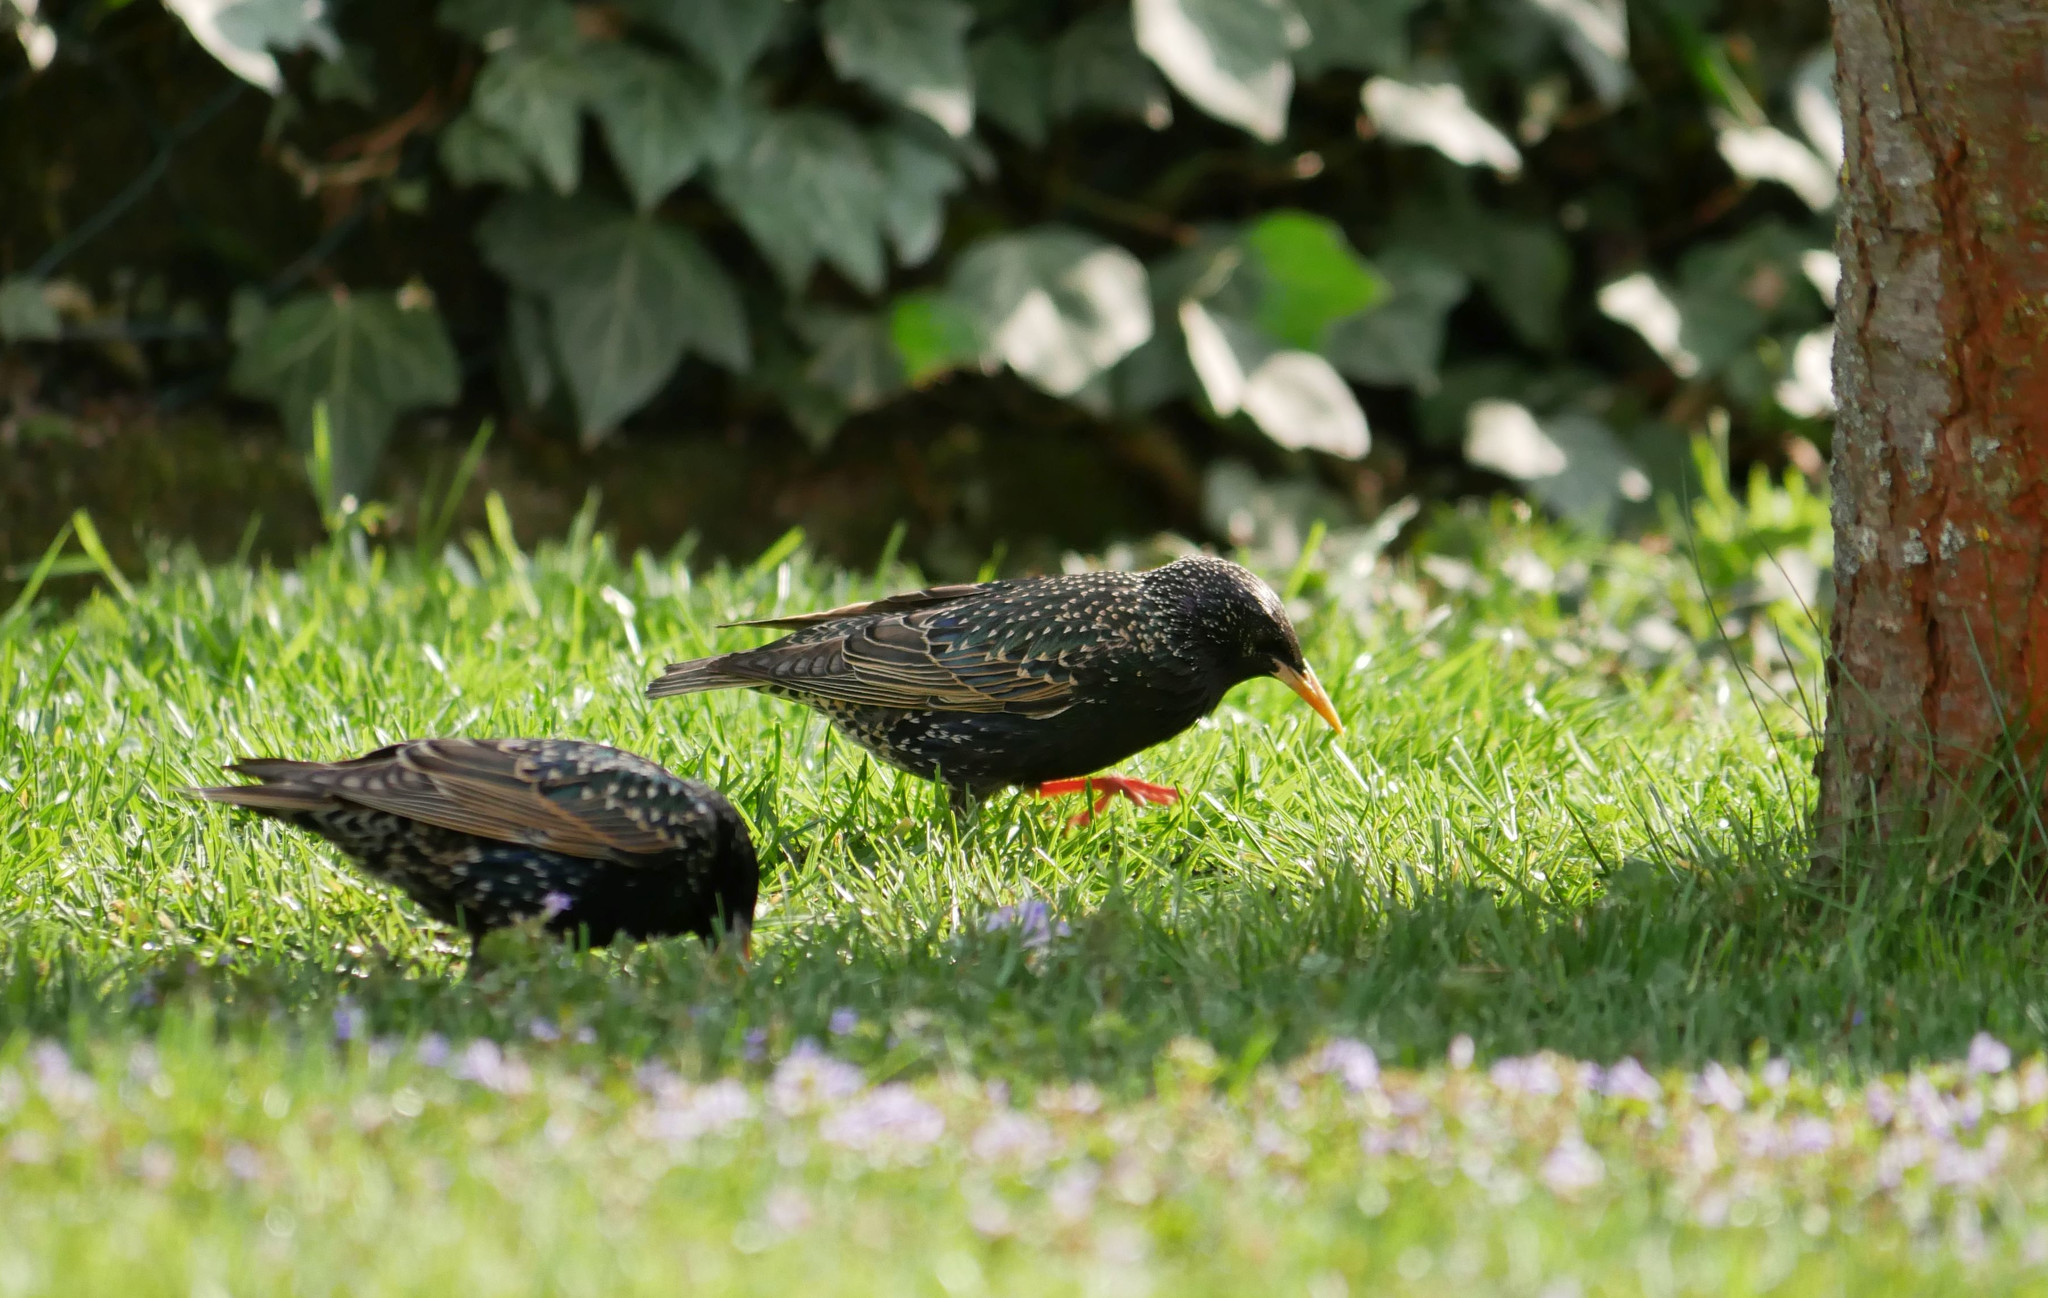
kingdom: Animalia
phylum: Chordata
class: Aves
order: Passeriformes
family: Sturnidae
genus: Sturnus
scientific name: Sturnus vulgaris
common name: Common starling
